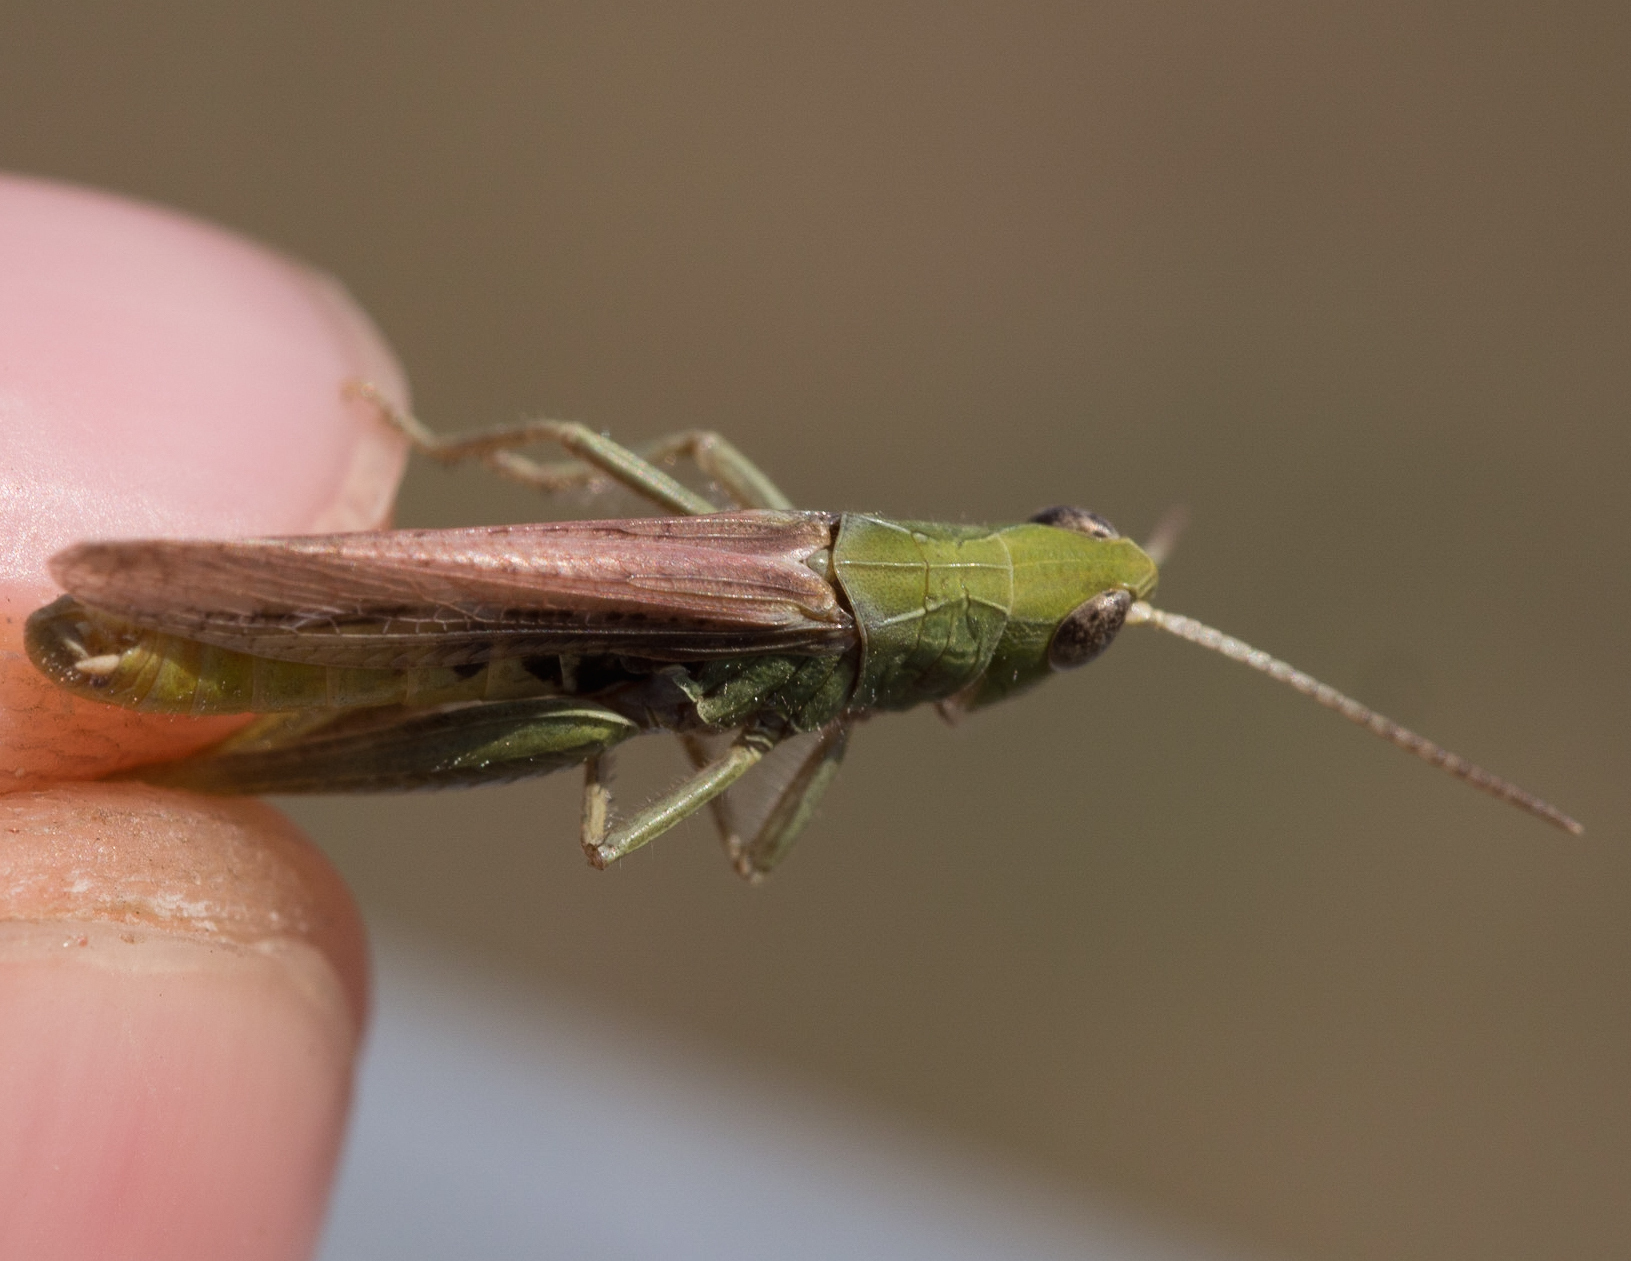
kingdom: Animalia
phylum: Arthropoda
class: Insecta
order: Orthoptera
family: Acrididae
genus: Chorthippus
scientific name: Chorthippus mollis
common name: Lesser field grasshopper
